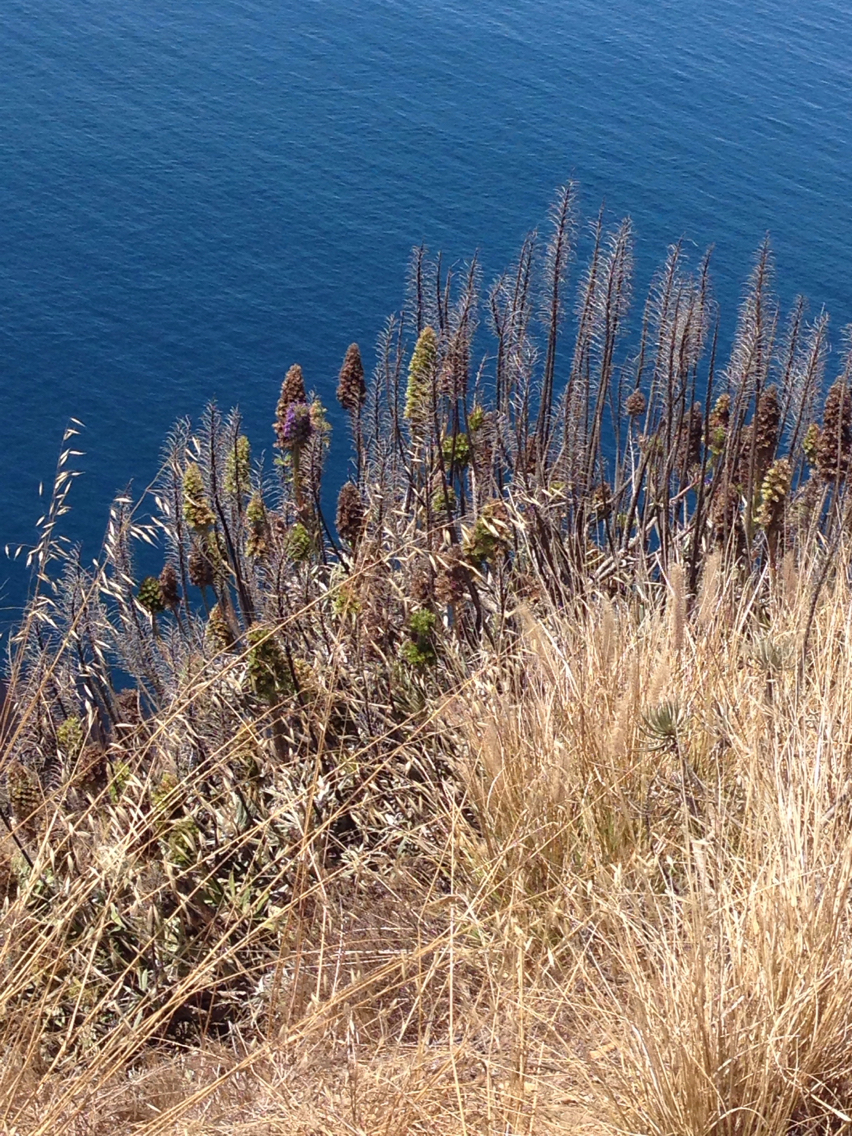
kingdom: Plantae
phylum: Tracheophyta
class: Magnoliopsida
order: Boraginales
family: Boraginaceae
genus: Echium
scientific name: Echium candicans
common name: Pride of madeira
